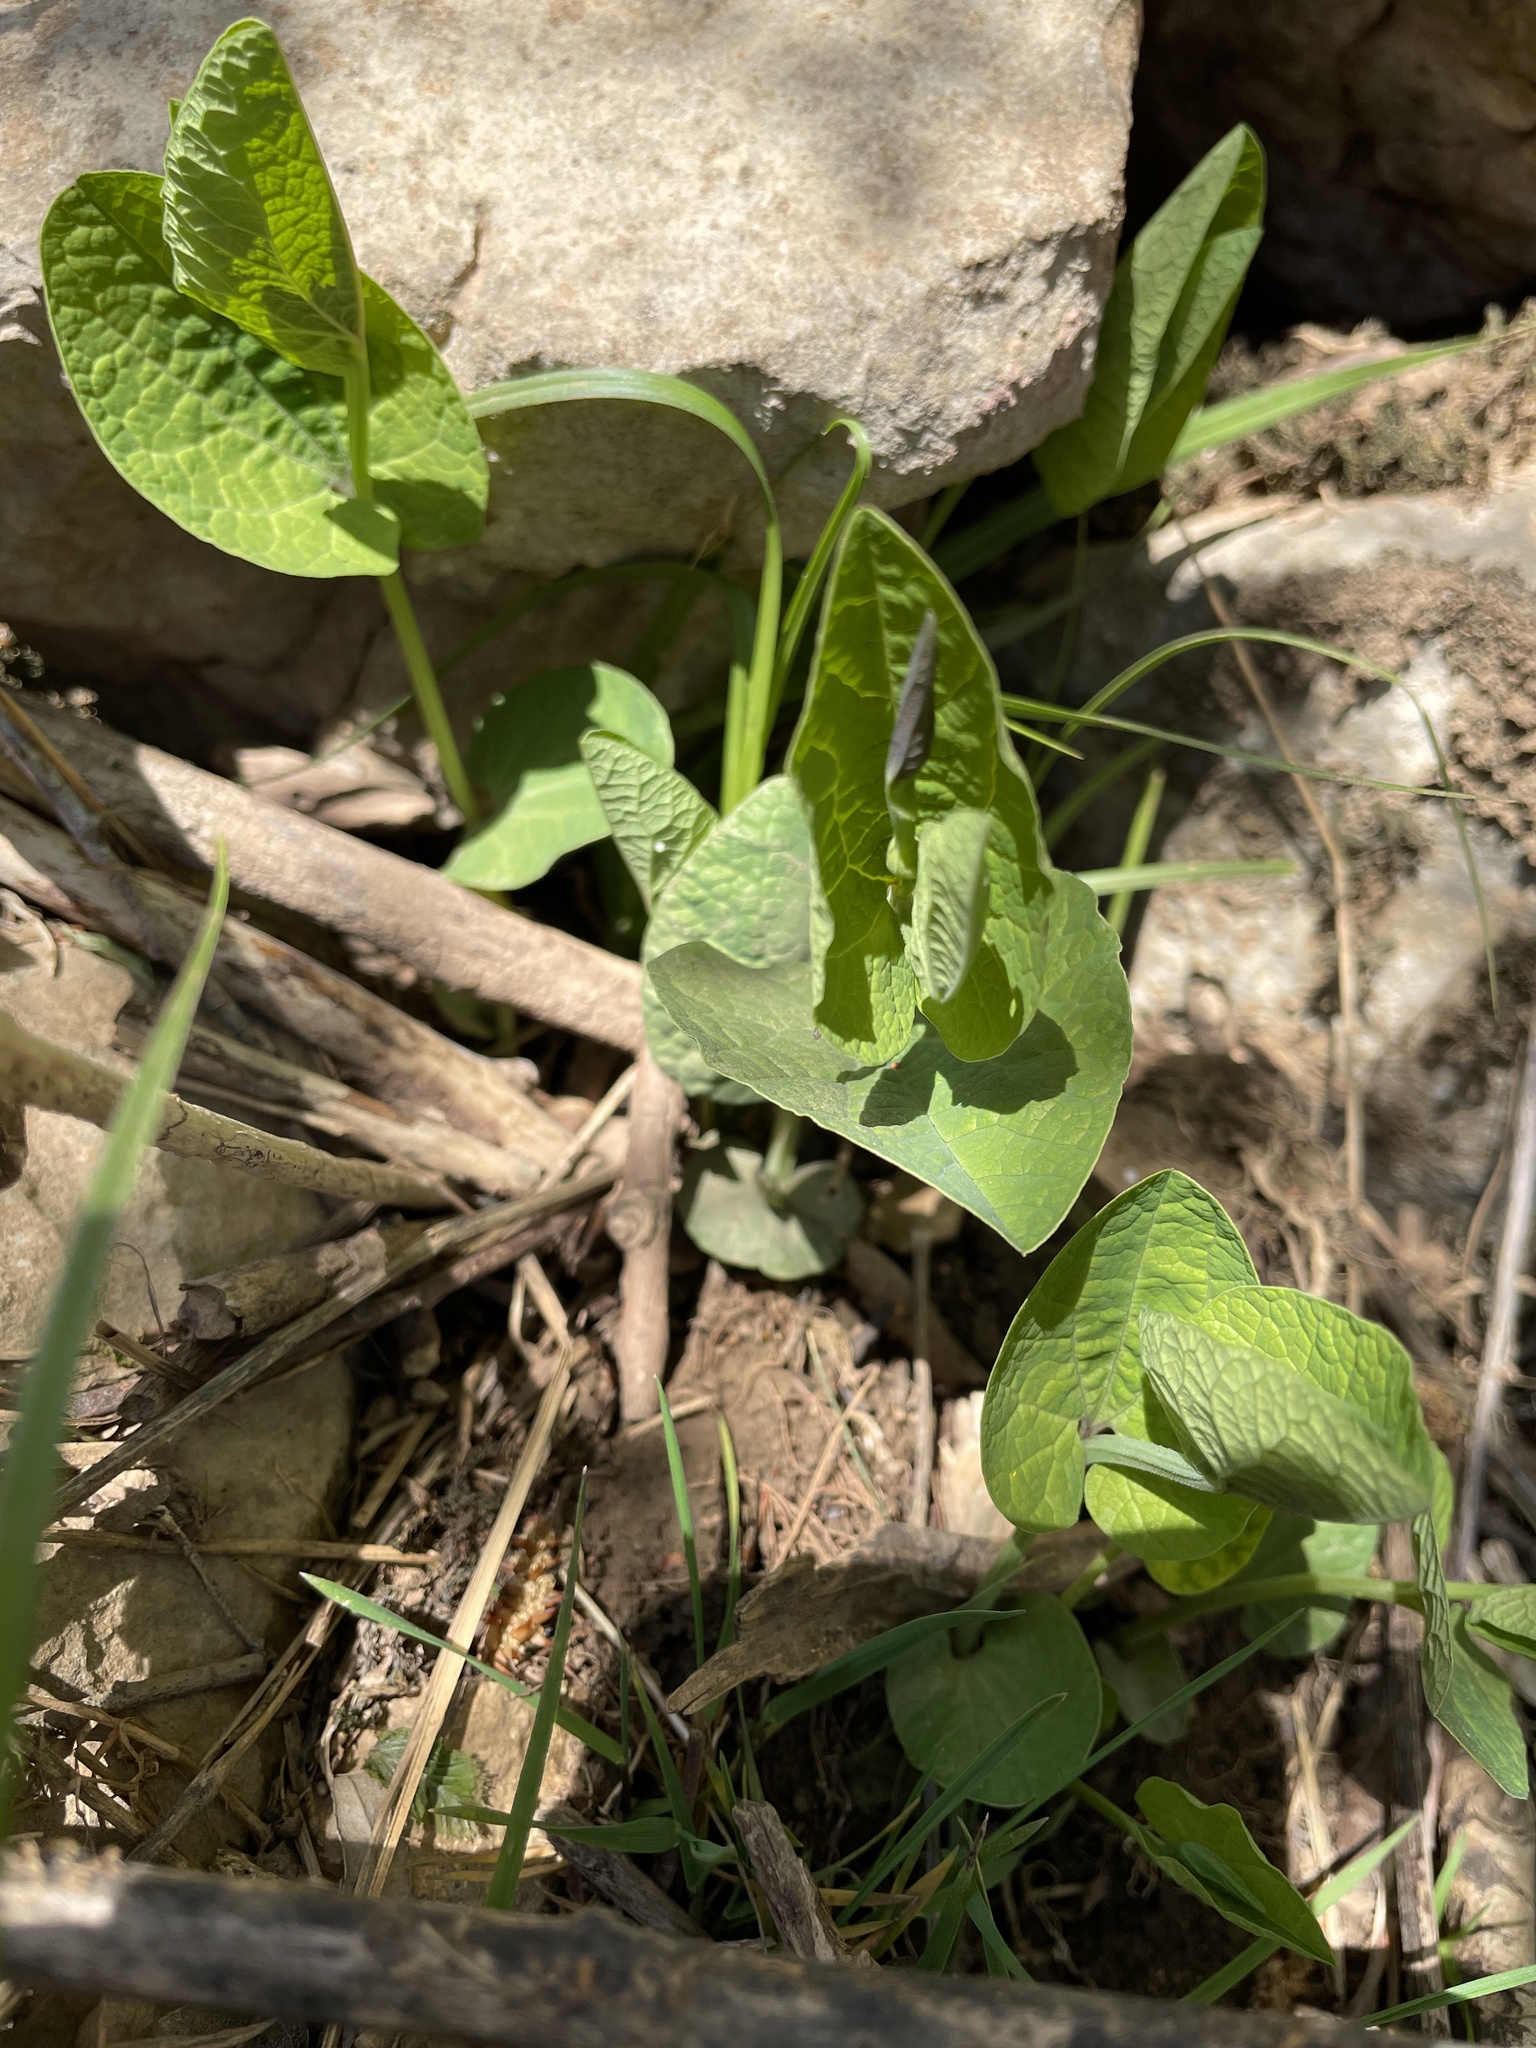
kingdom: Plantae
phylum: Tracheophyta
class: Magnoliopsida
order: Piperales
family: Aristolochiaceae
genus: Aristolochia
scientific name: Aristolochia rotunda
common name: Smearwort
